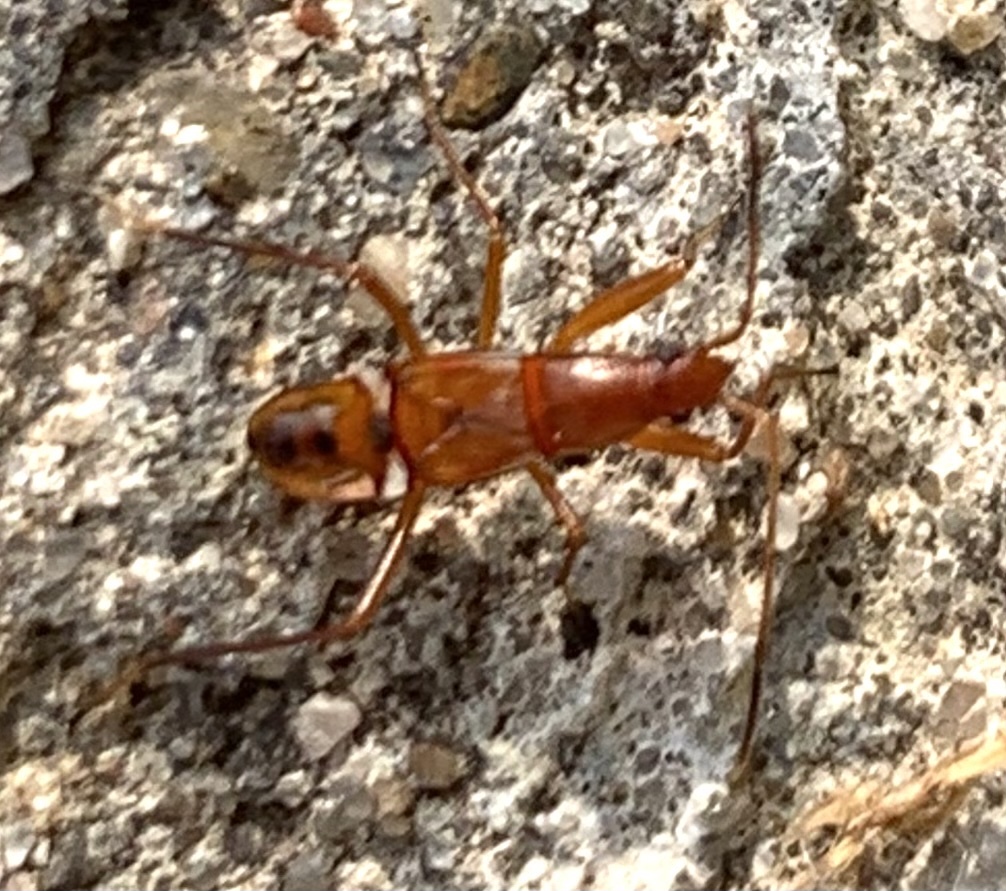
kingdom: Animalia
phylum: Arthropoda
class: Insecta
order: Hemiptera
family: Rhyparochromidae
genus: Cnemodus
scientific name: Cnemodus mavortius
